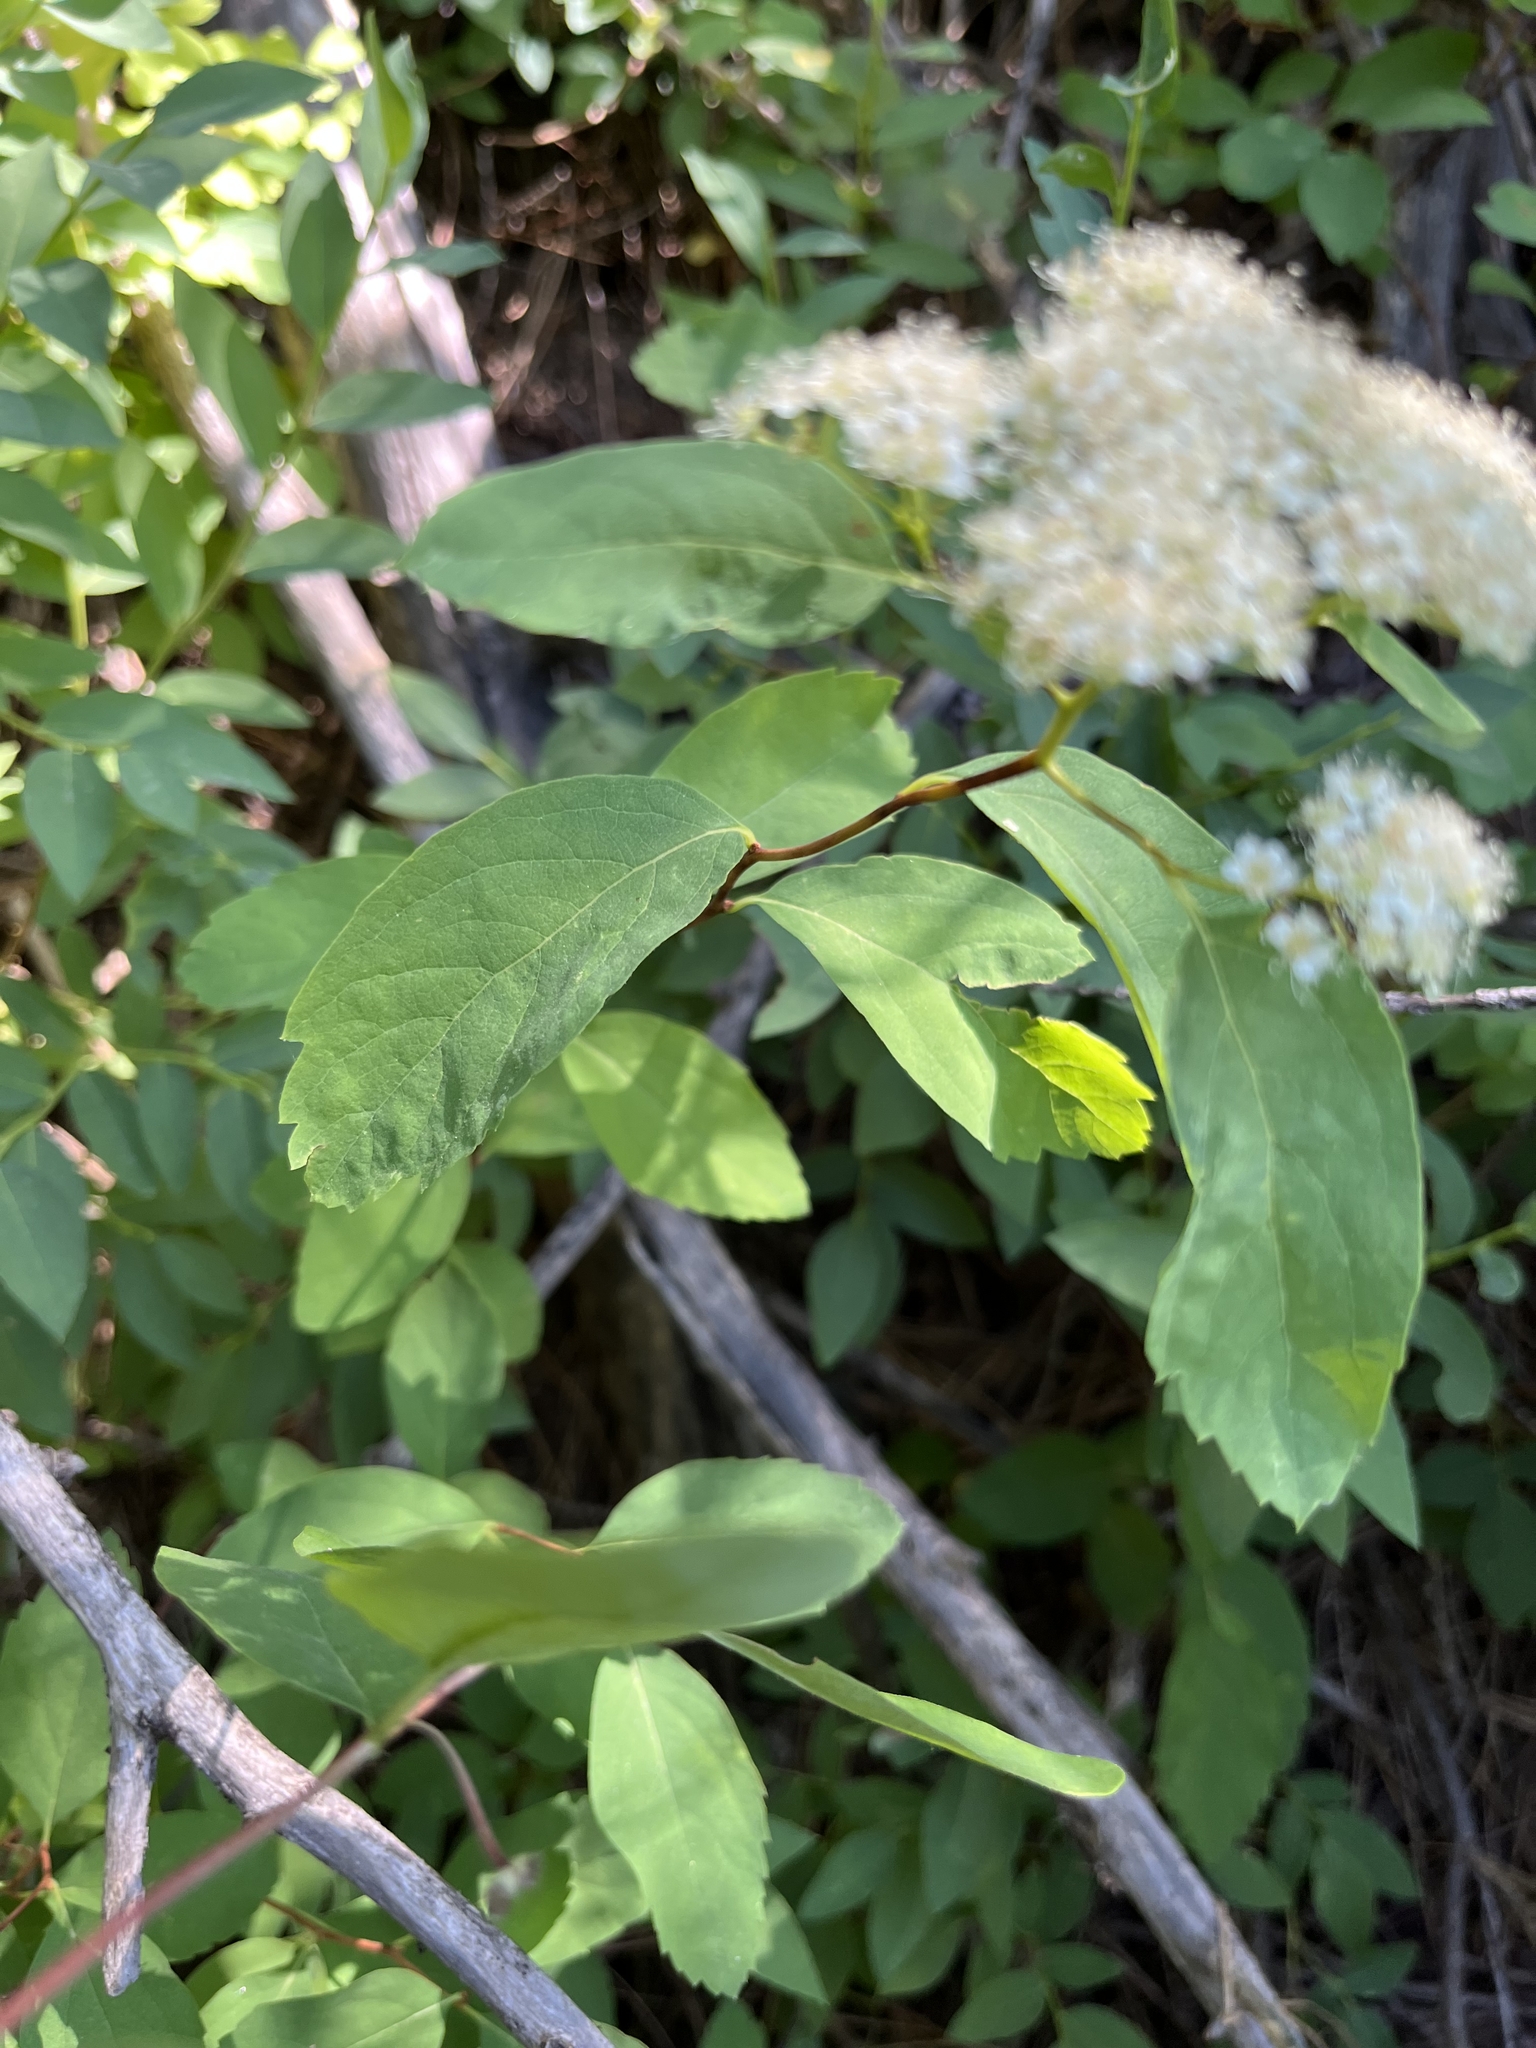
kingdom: Plantae
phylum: Tracheophyta
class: Magnoliopsida
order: Rosales
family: Rosaceae
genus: Spiraea
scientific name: Spiraea lucida
